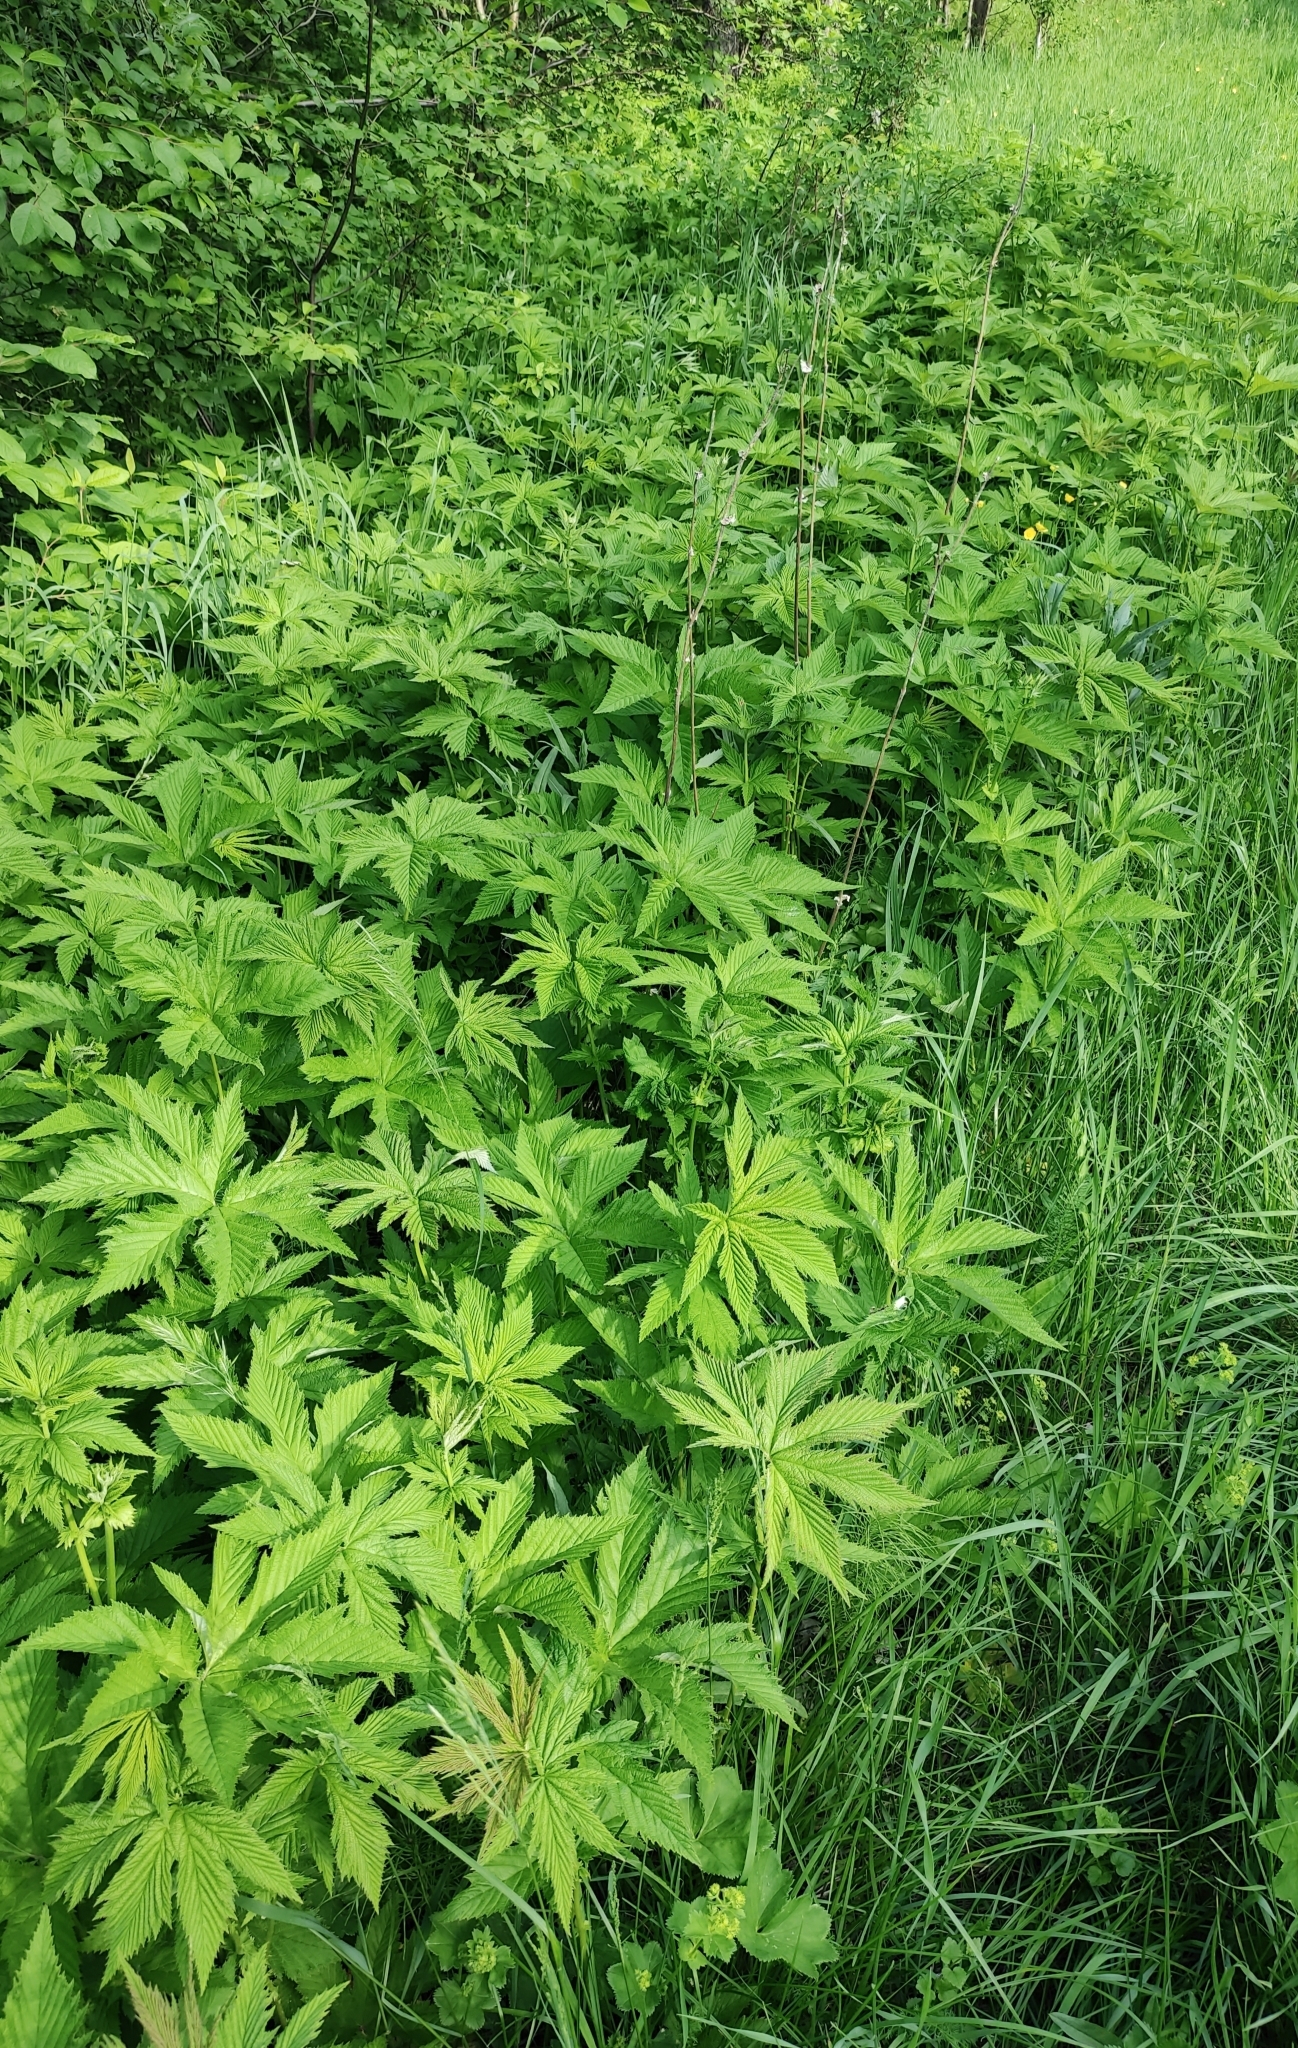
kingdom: Plantae
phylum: Tracheophyta
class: Magnoliopsida
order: Rosales
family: Rosaceae
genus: Filipendula
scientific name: Filipendula digitata
